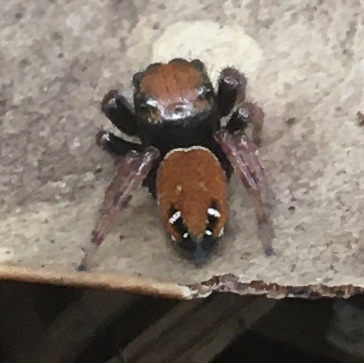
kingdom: Animalia
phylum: Arthropoda
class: Arachnida
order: Araneae
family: Salticidae
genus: Phidippus
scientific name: Phidippus whitmani
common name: Whitman's jumping spider
